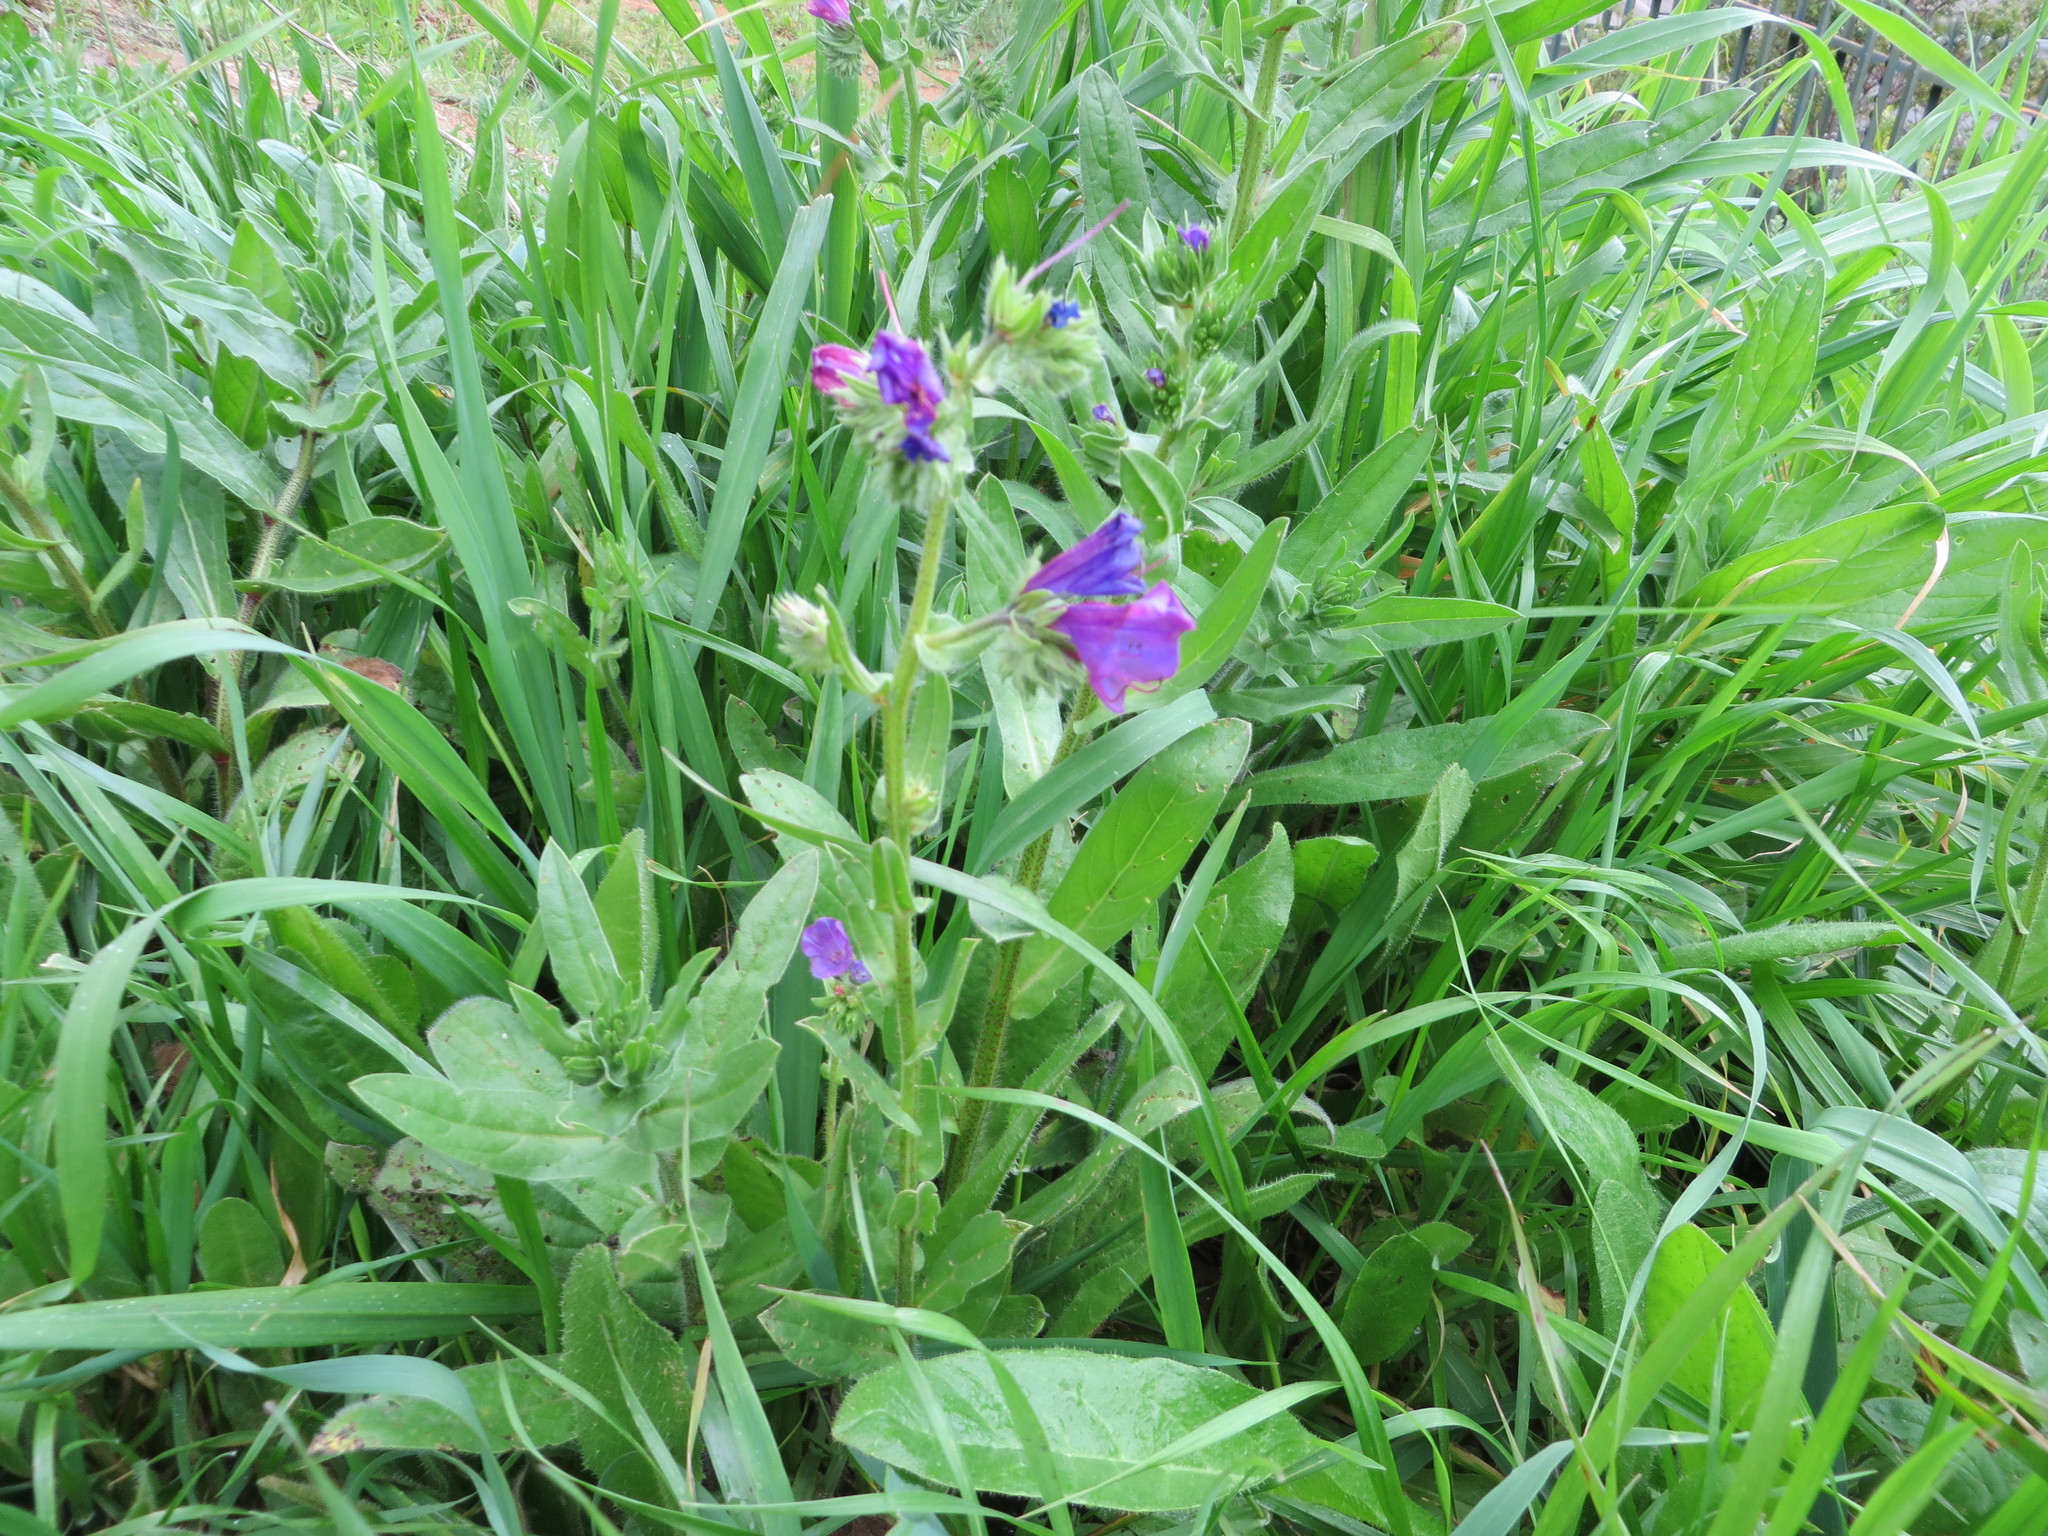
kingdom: Plantae
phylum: Tracheophyta
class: Magnoliopsida
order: Boraginales
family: Boraginaceae
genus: Echium
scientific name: Echium plantagineum
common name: Purple viper's-bugloss
